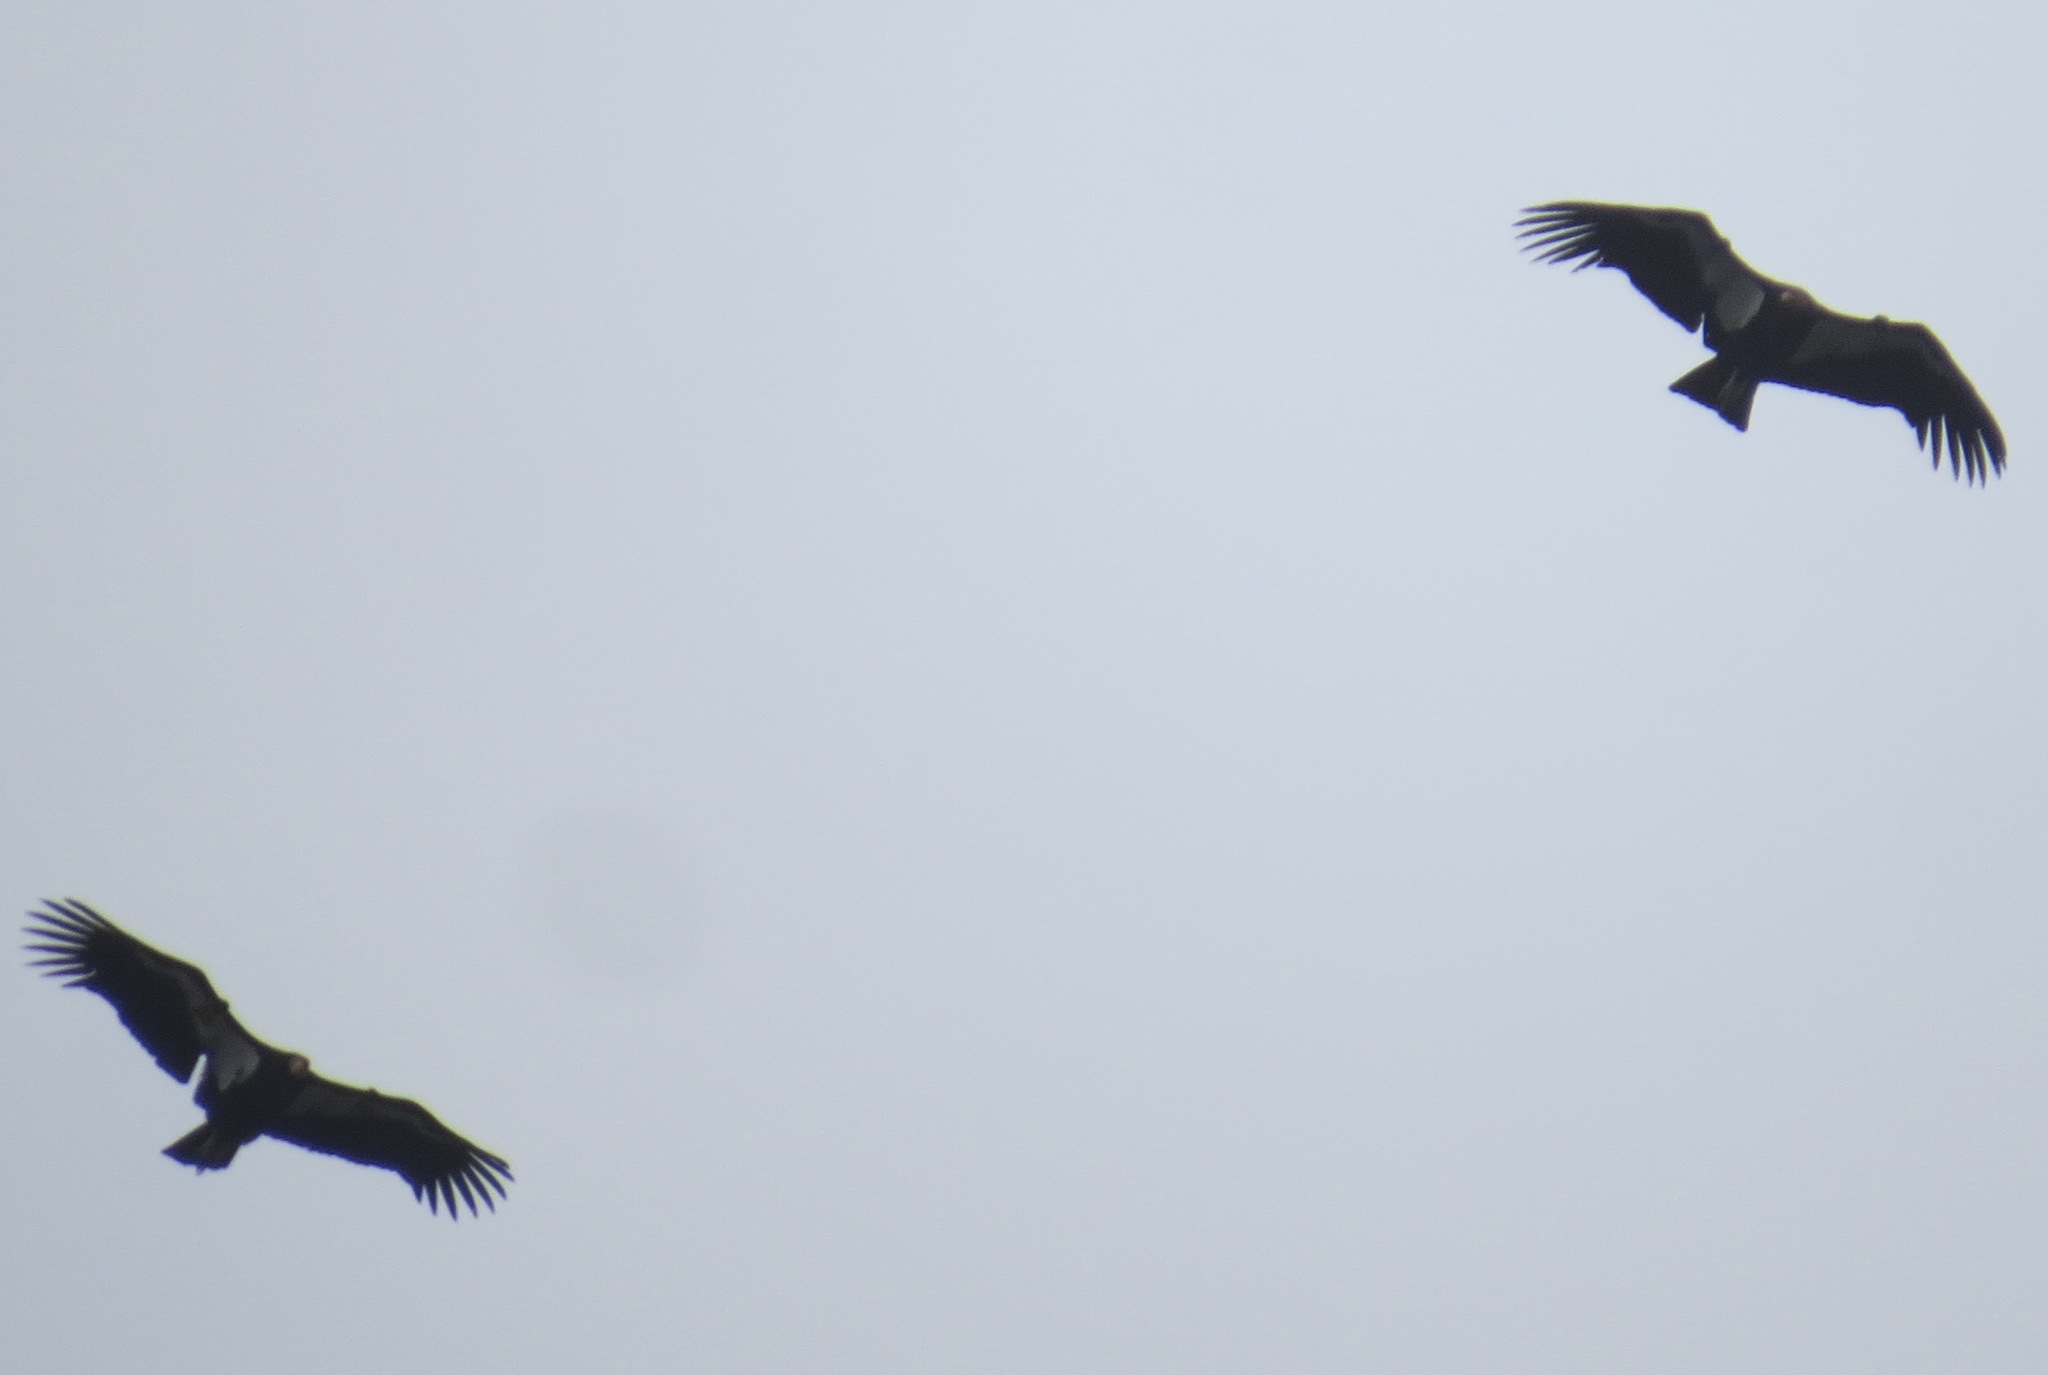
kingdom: Animalia
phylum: Chordata
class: Aves
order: Accipitriformes
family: Cathartidae
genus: Gymnogyps
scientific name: Gymnogyps californianus
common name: California condor
